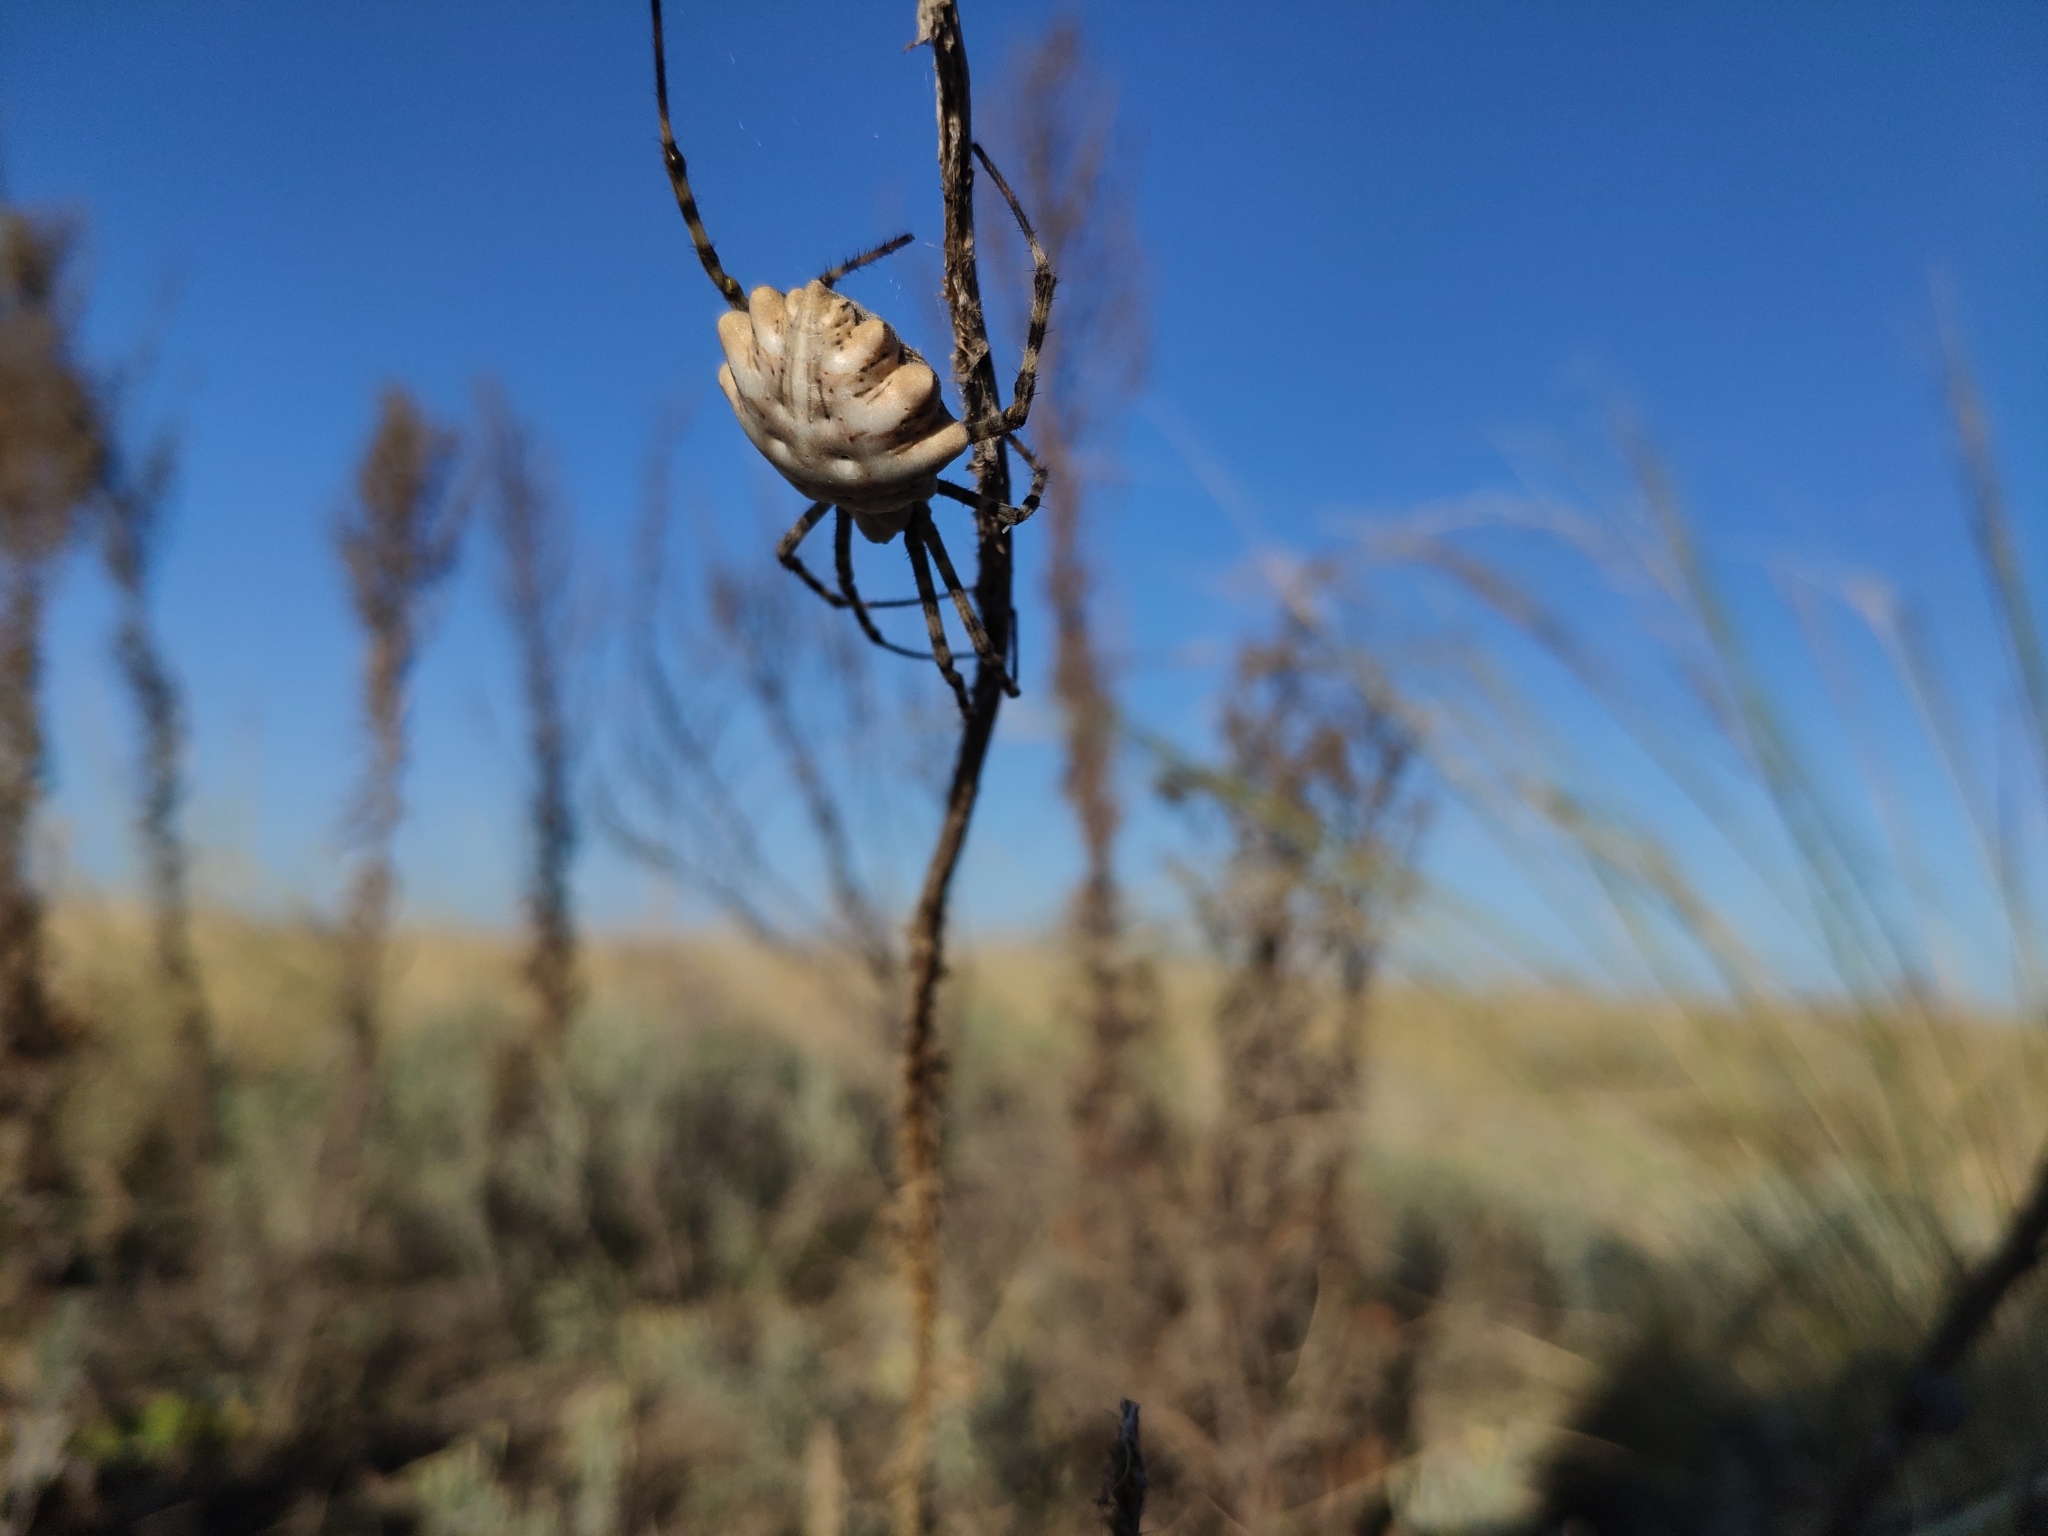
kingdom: Animalia
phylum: Arthropoda
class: Arachnida
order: Araneae
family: Araneidae
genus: Argiope
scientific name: Argiope lobata
